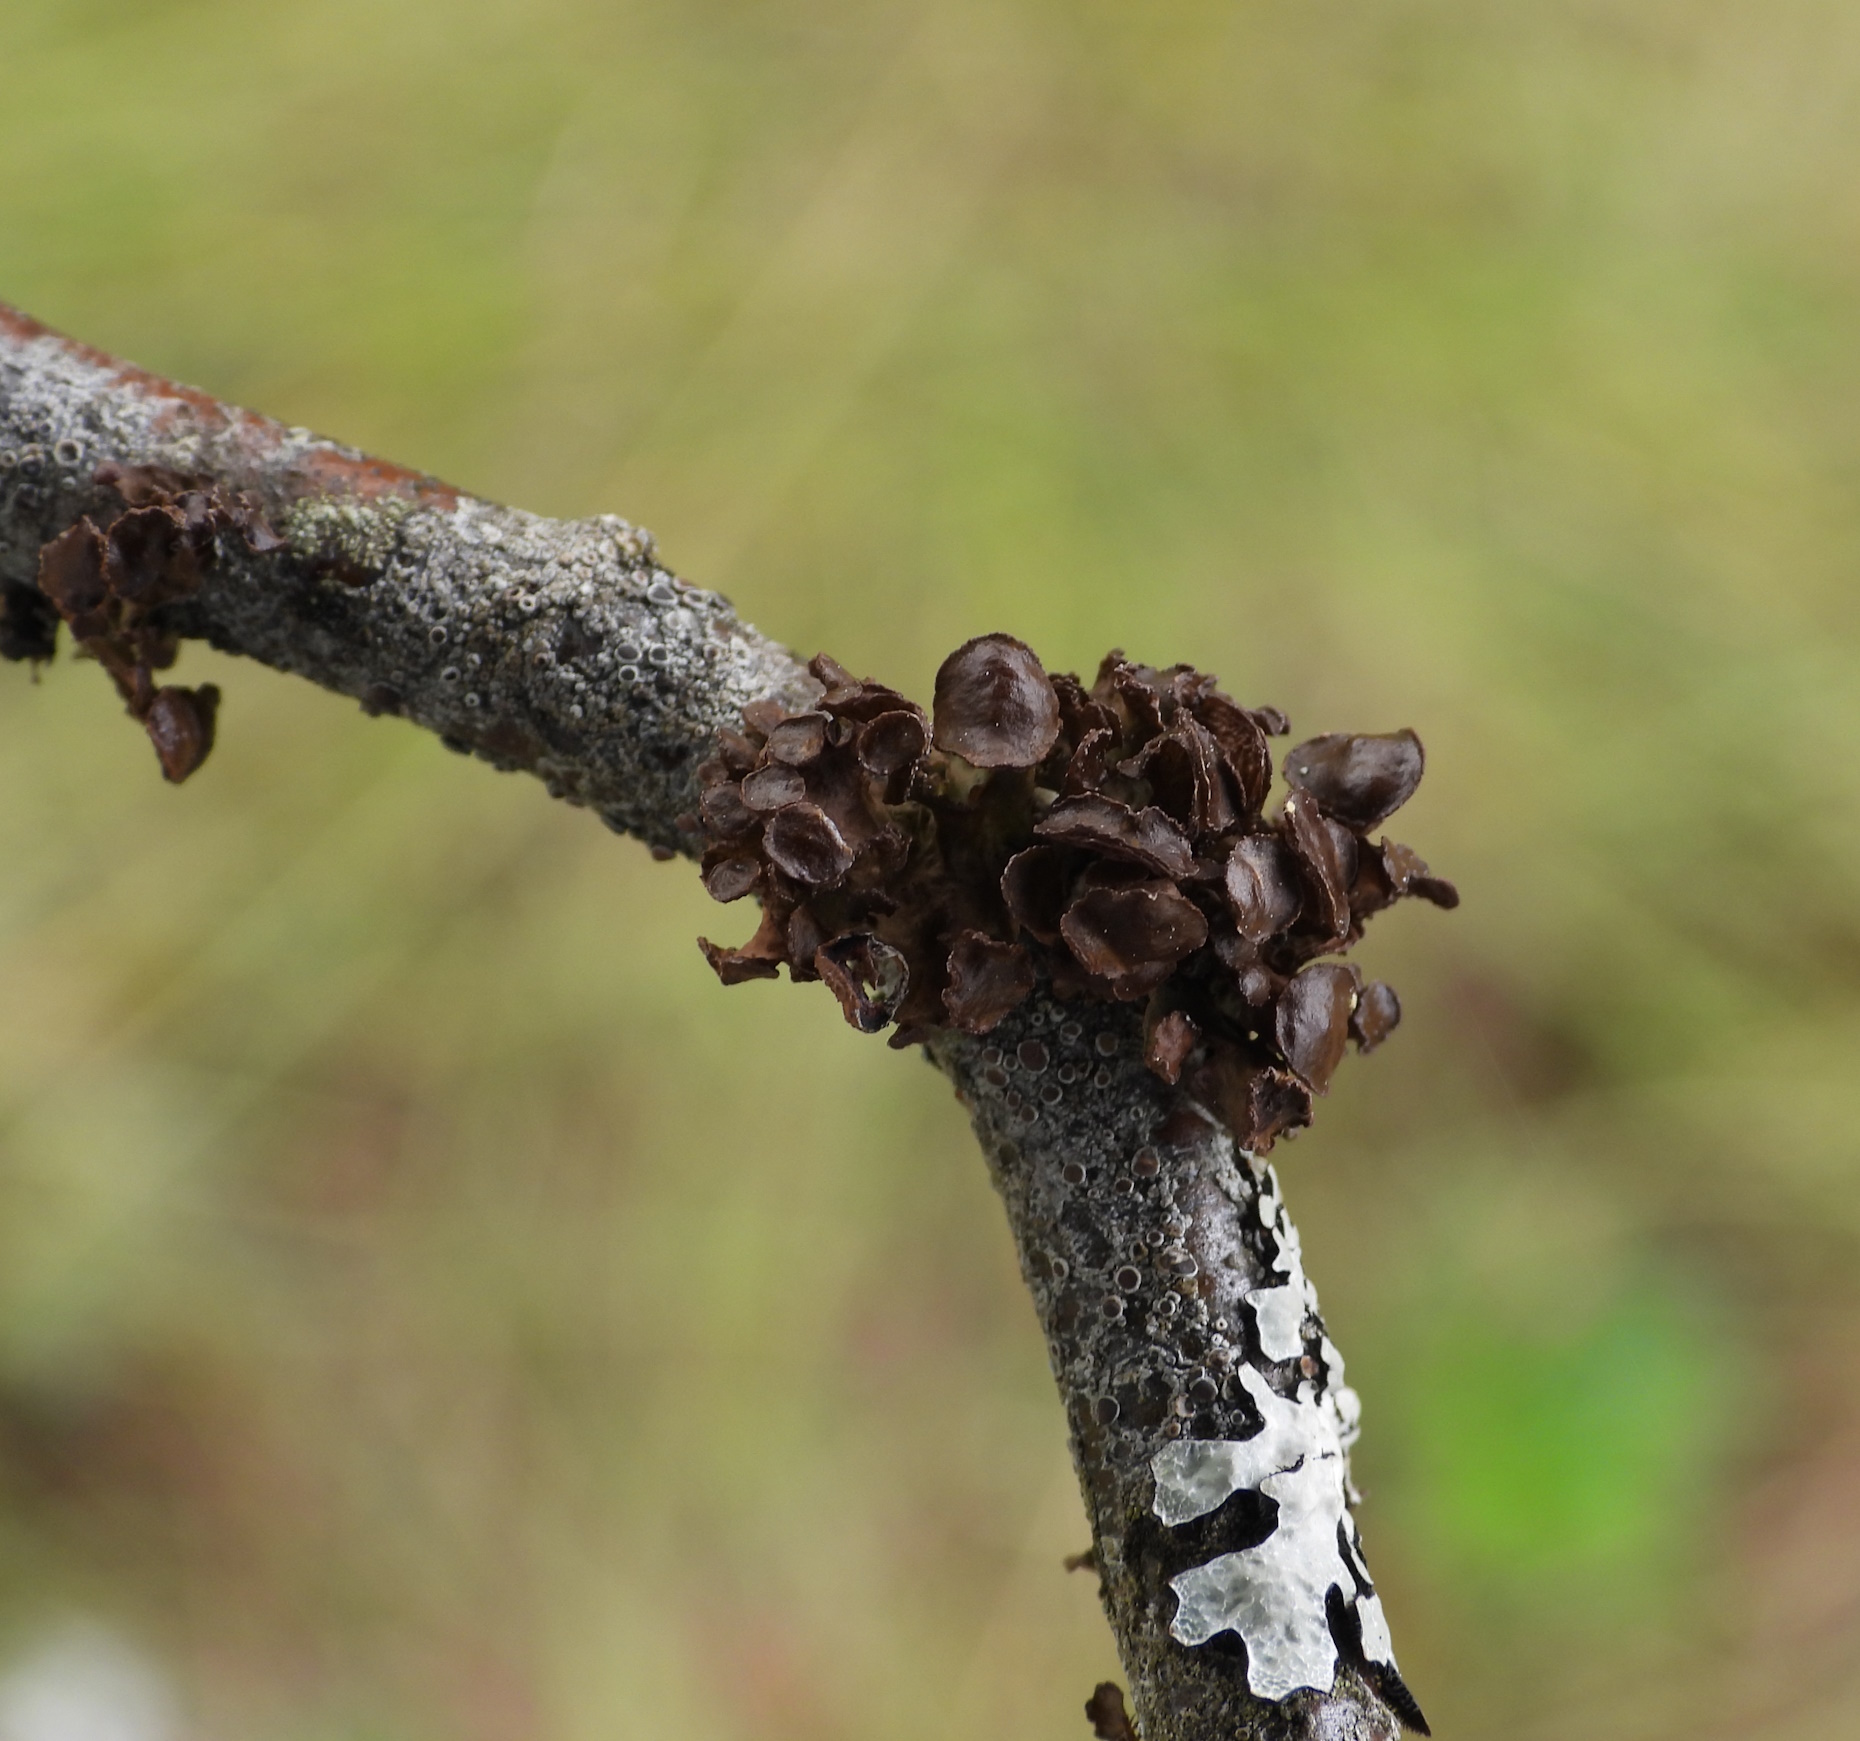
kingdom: Fungi
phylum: Ascomycota
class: Lecanoromycetes
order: Lecanorales
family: Parmeliaceae
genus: Cetraria
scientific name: Cetraria sepincola
